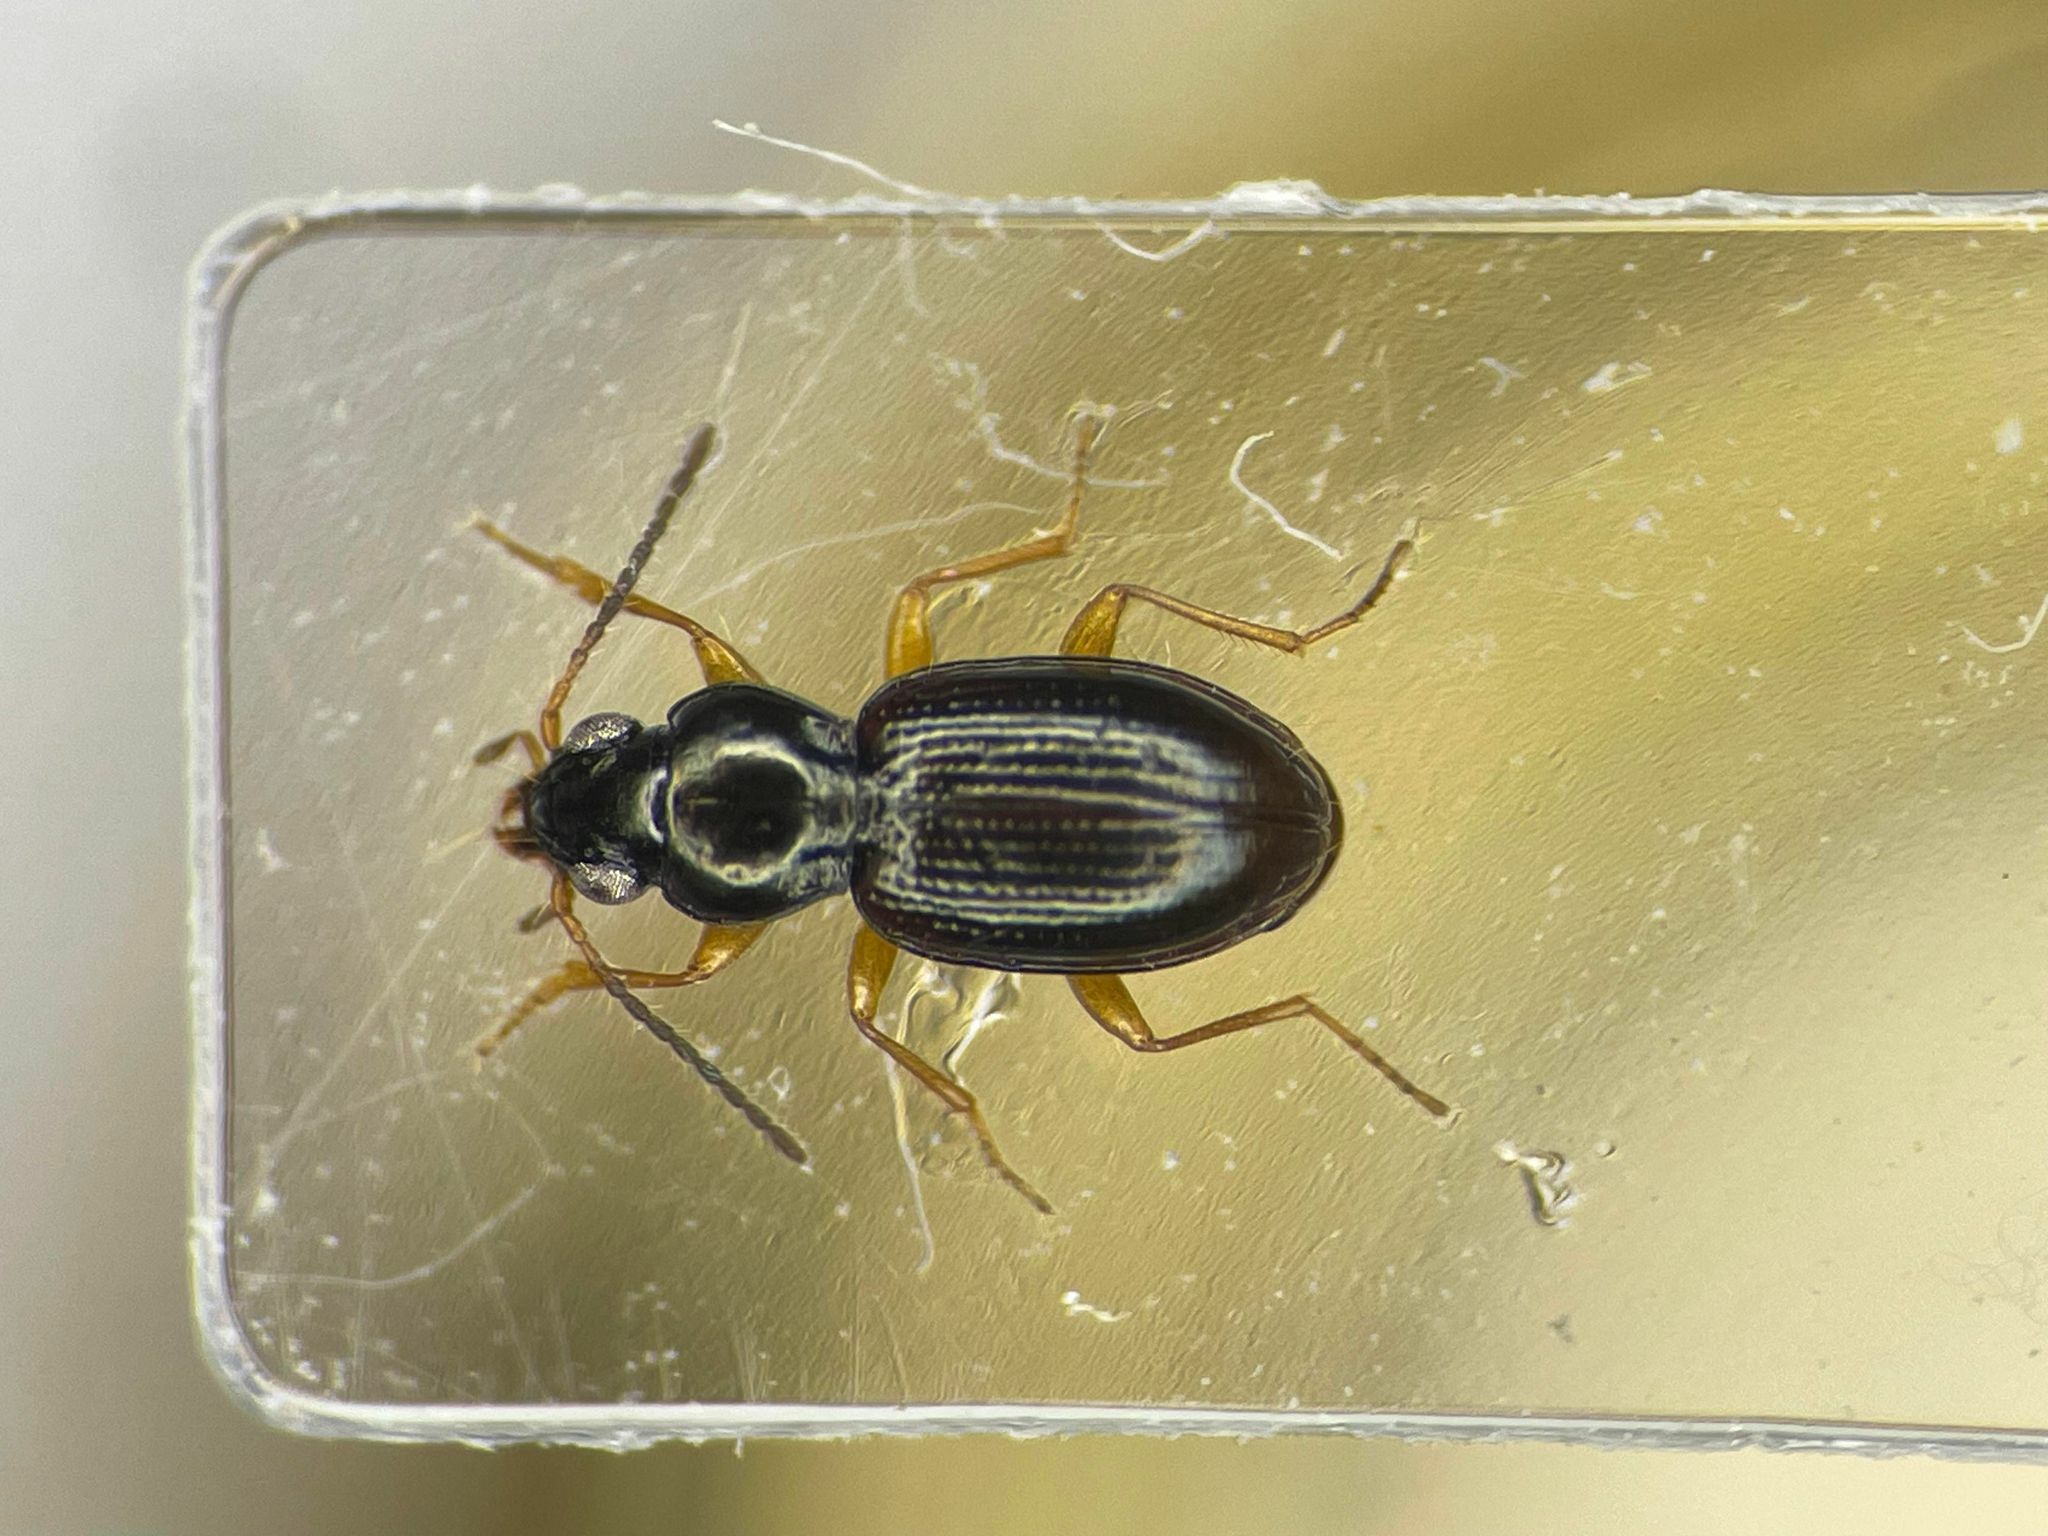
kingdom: Animalia
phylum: Arthropoda
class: Insecta
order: Coleoptera
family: Carabidae
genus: Bembidion
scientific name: Bembidion muscicola
